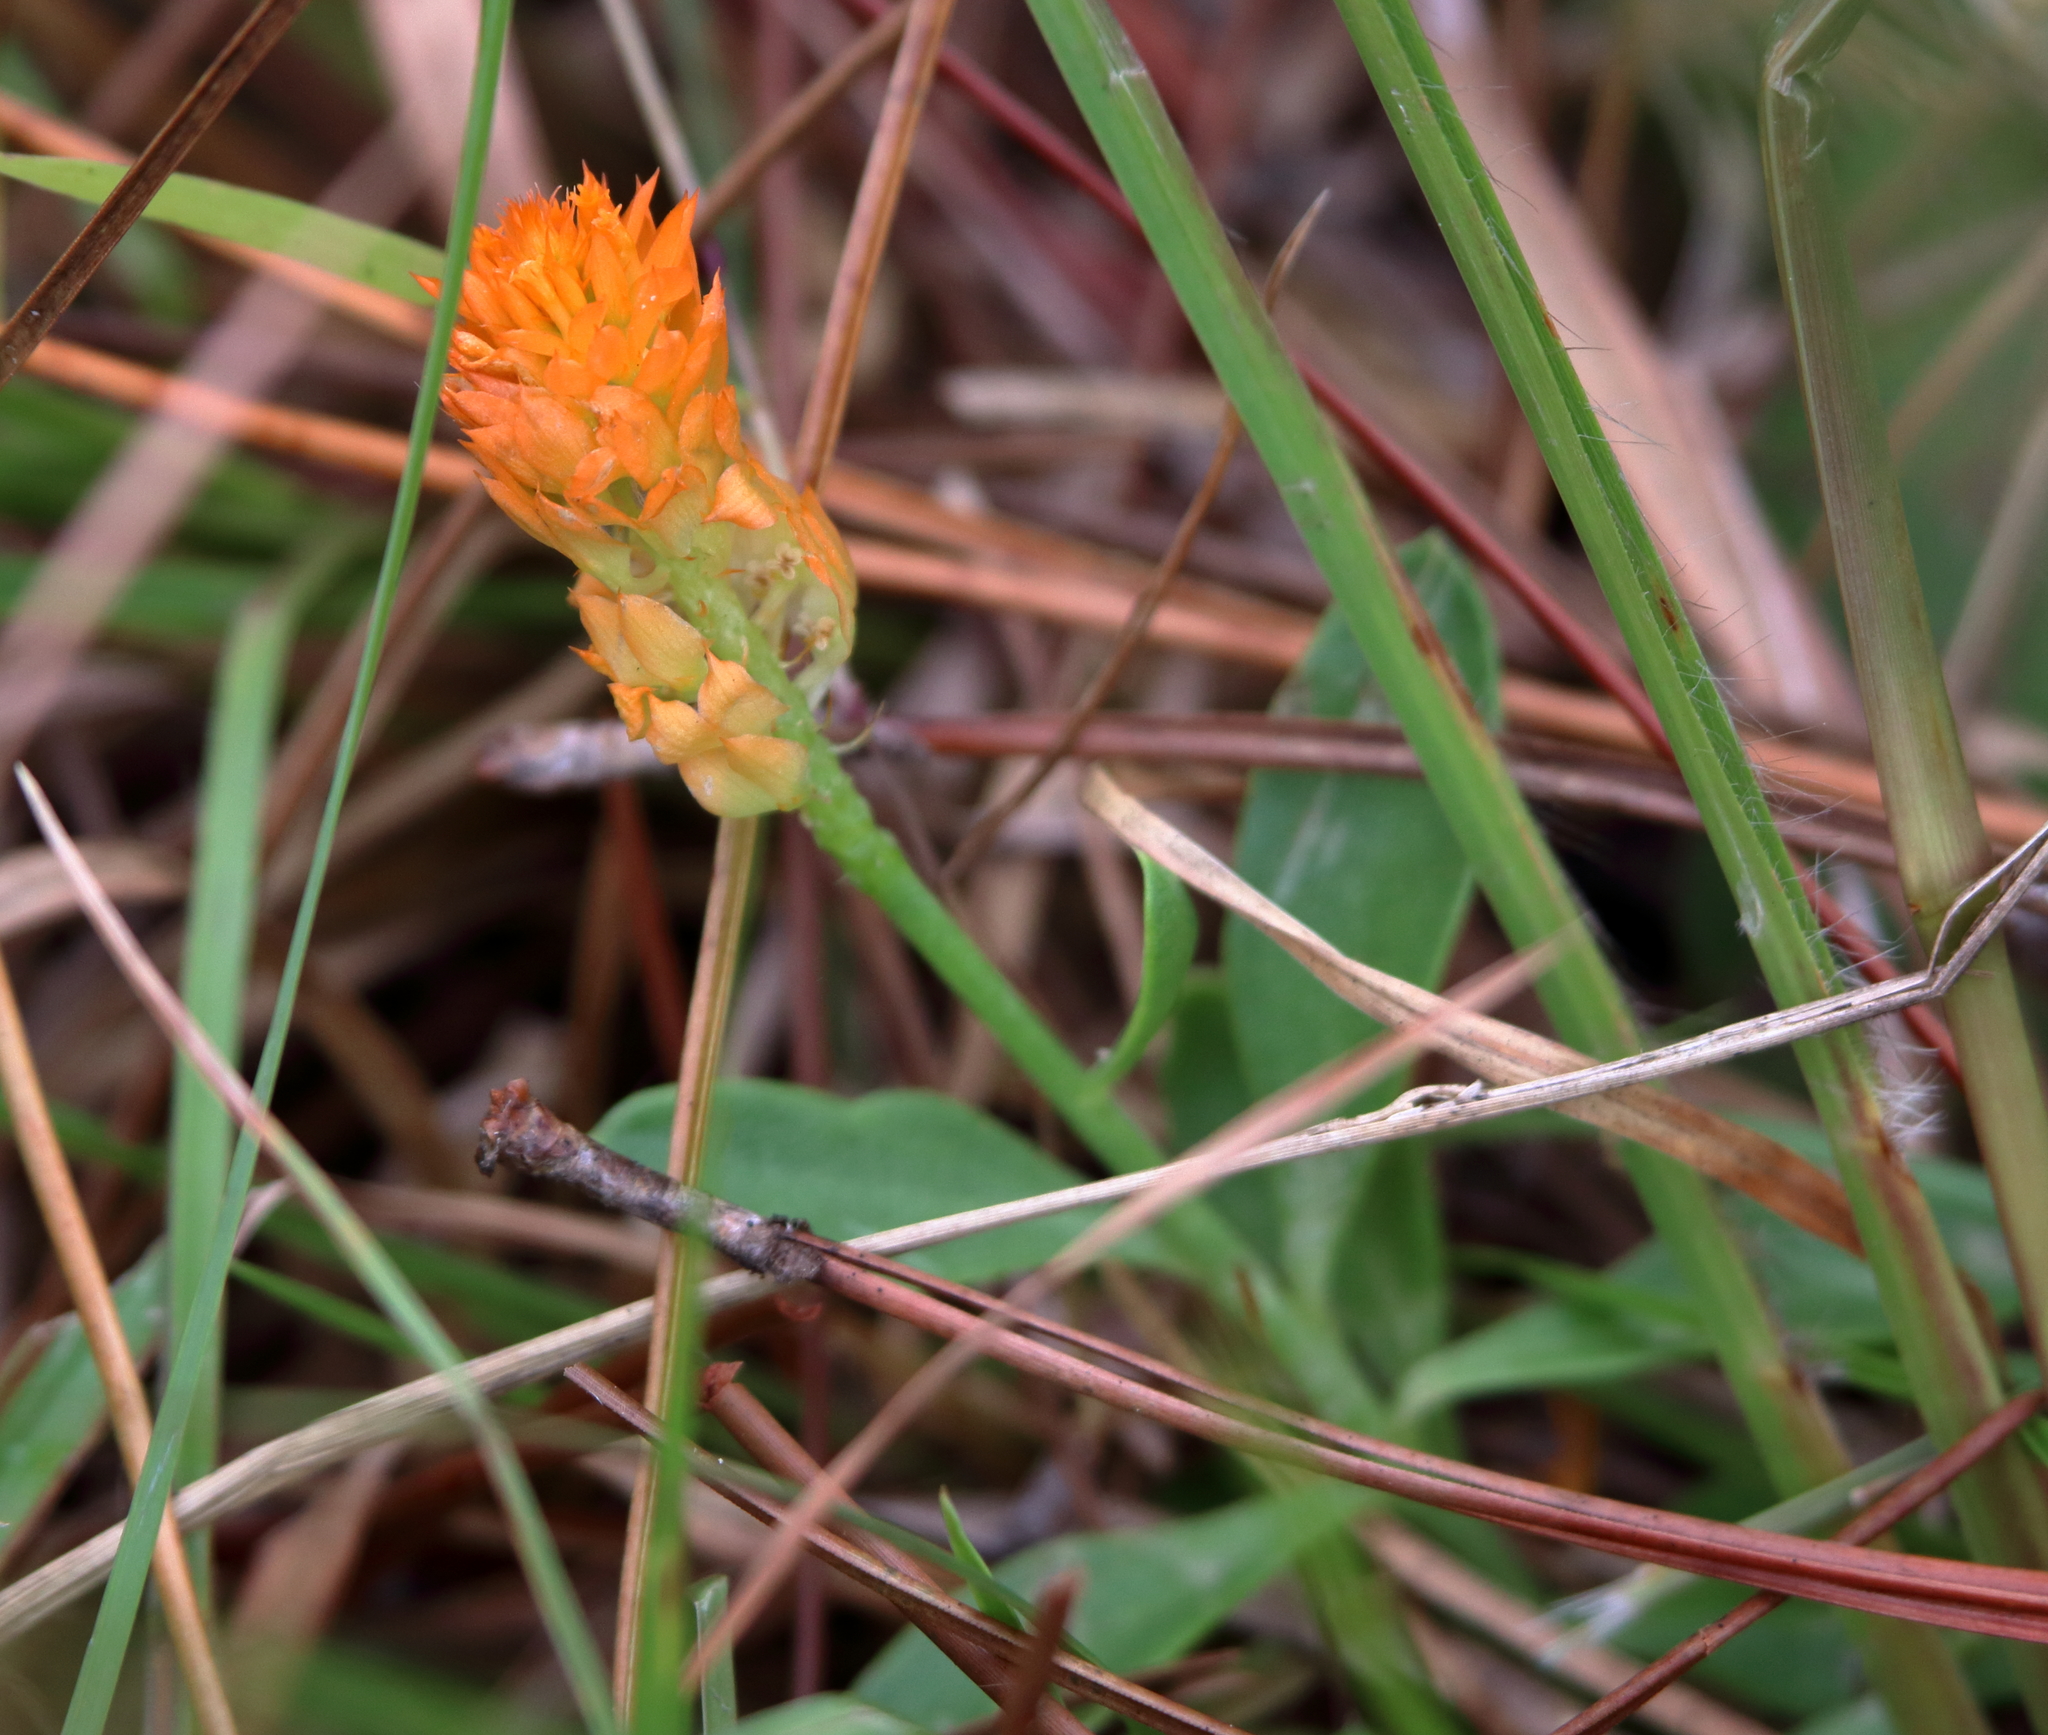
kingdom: Plantae
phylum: Tracheophyta
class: Magnoliopsida
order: Fabales
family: Polygalaceae
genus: Polygala
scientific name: Polygala lutea
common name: Orange milkwort
